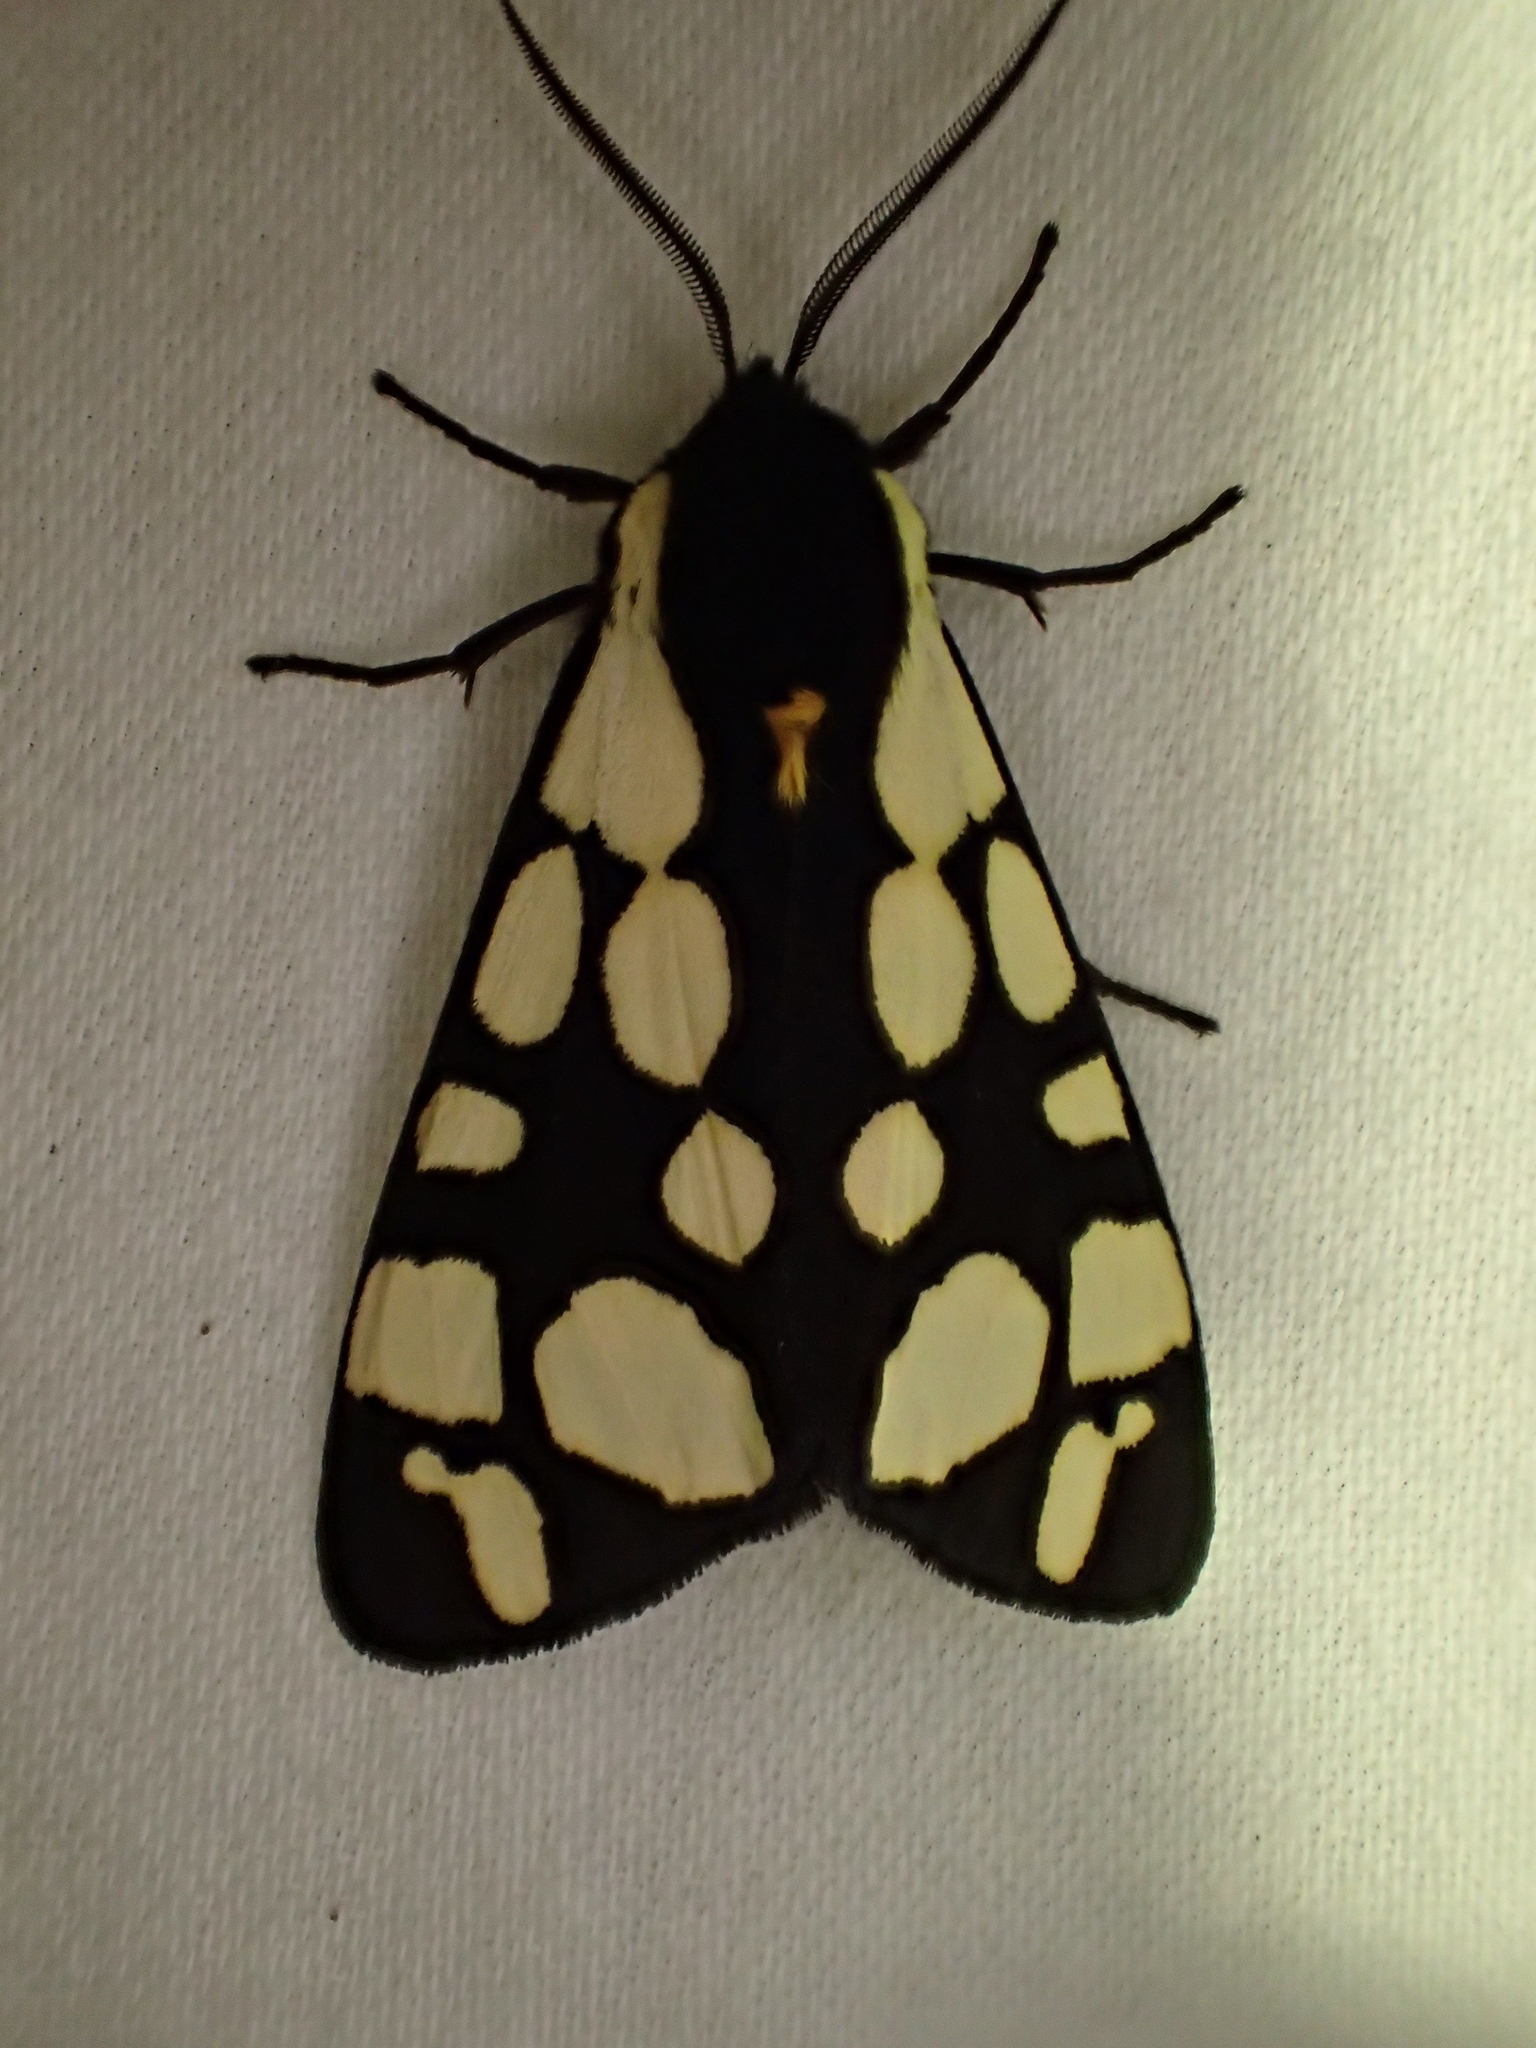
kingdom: Animalia
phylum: Arthropoda
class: Insecta
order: Lepidoptera
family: Erebidae
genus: Epicallia
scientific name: Epicallia villica
